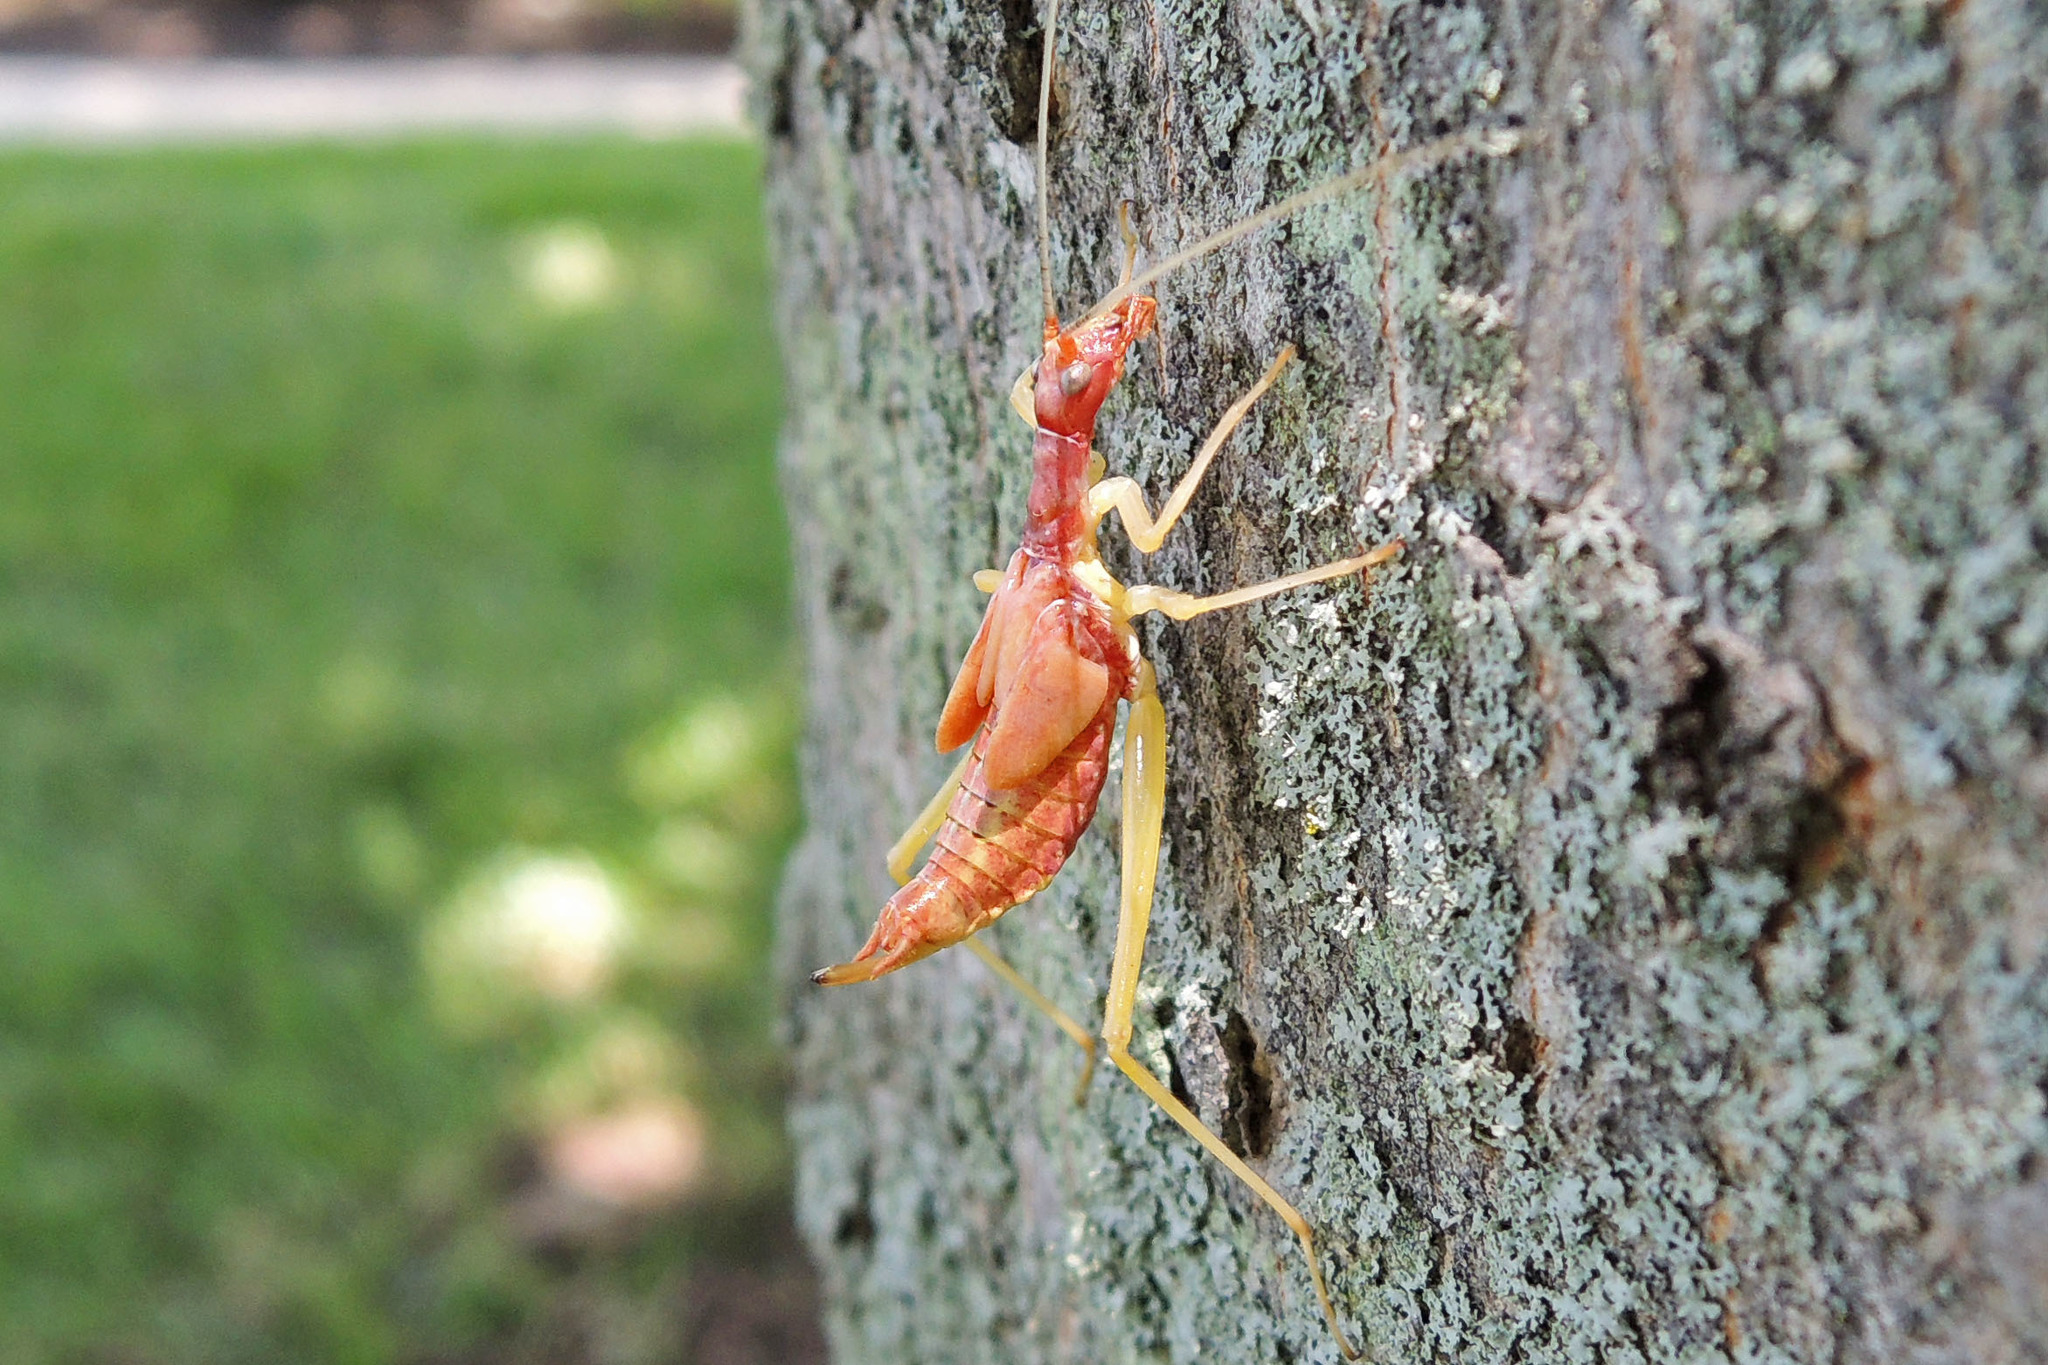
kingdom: Animalia
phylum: Arthropoda
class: Insecta
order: Orthoptera
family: Gryllidae
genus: Neoxabea
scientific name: Neoxabea bipunctata
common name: Two-spotted tree cricket
